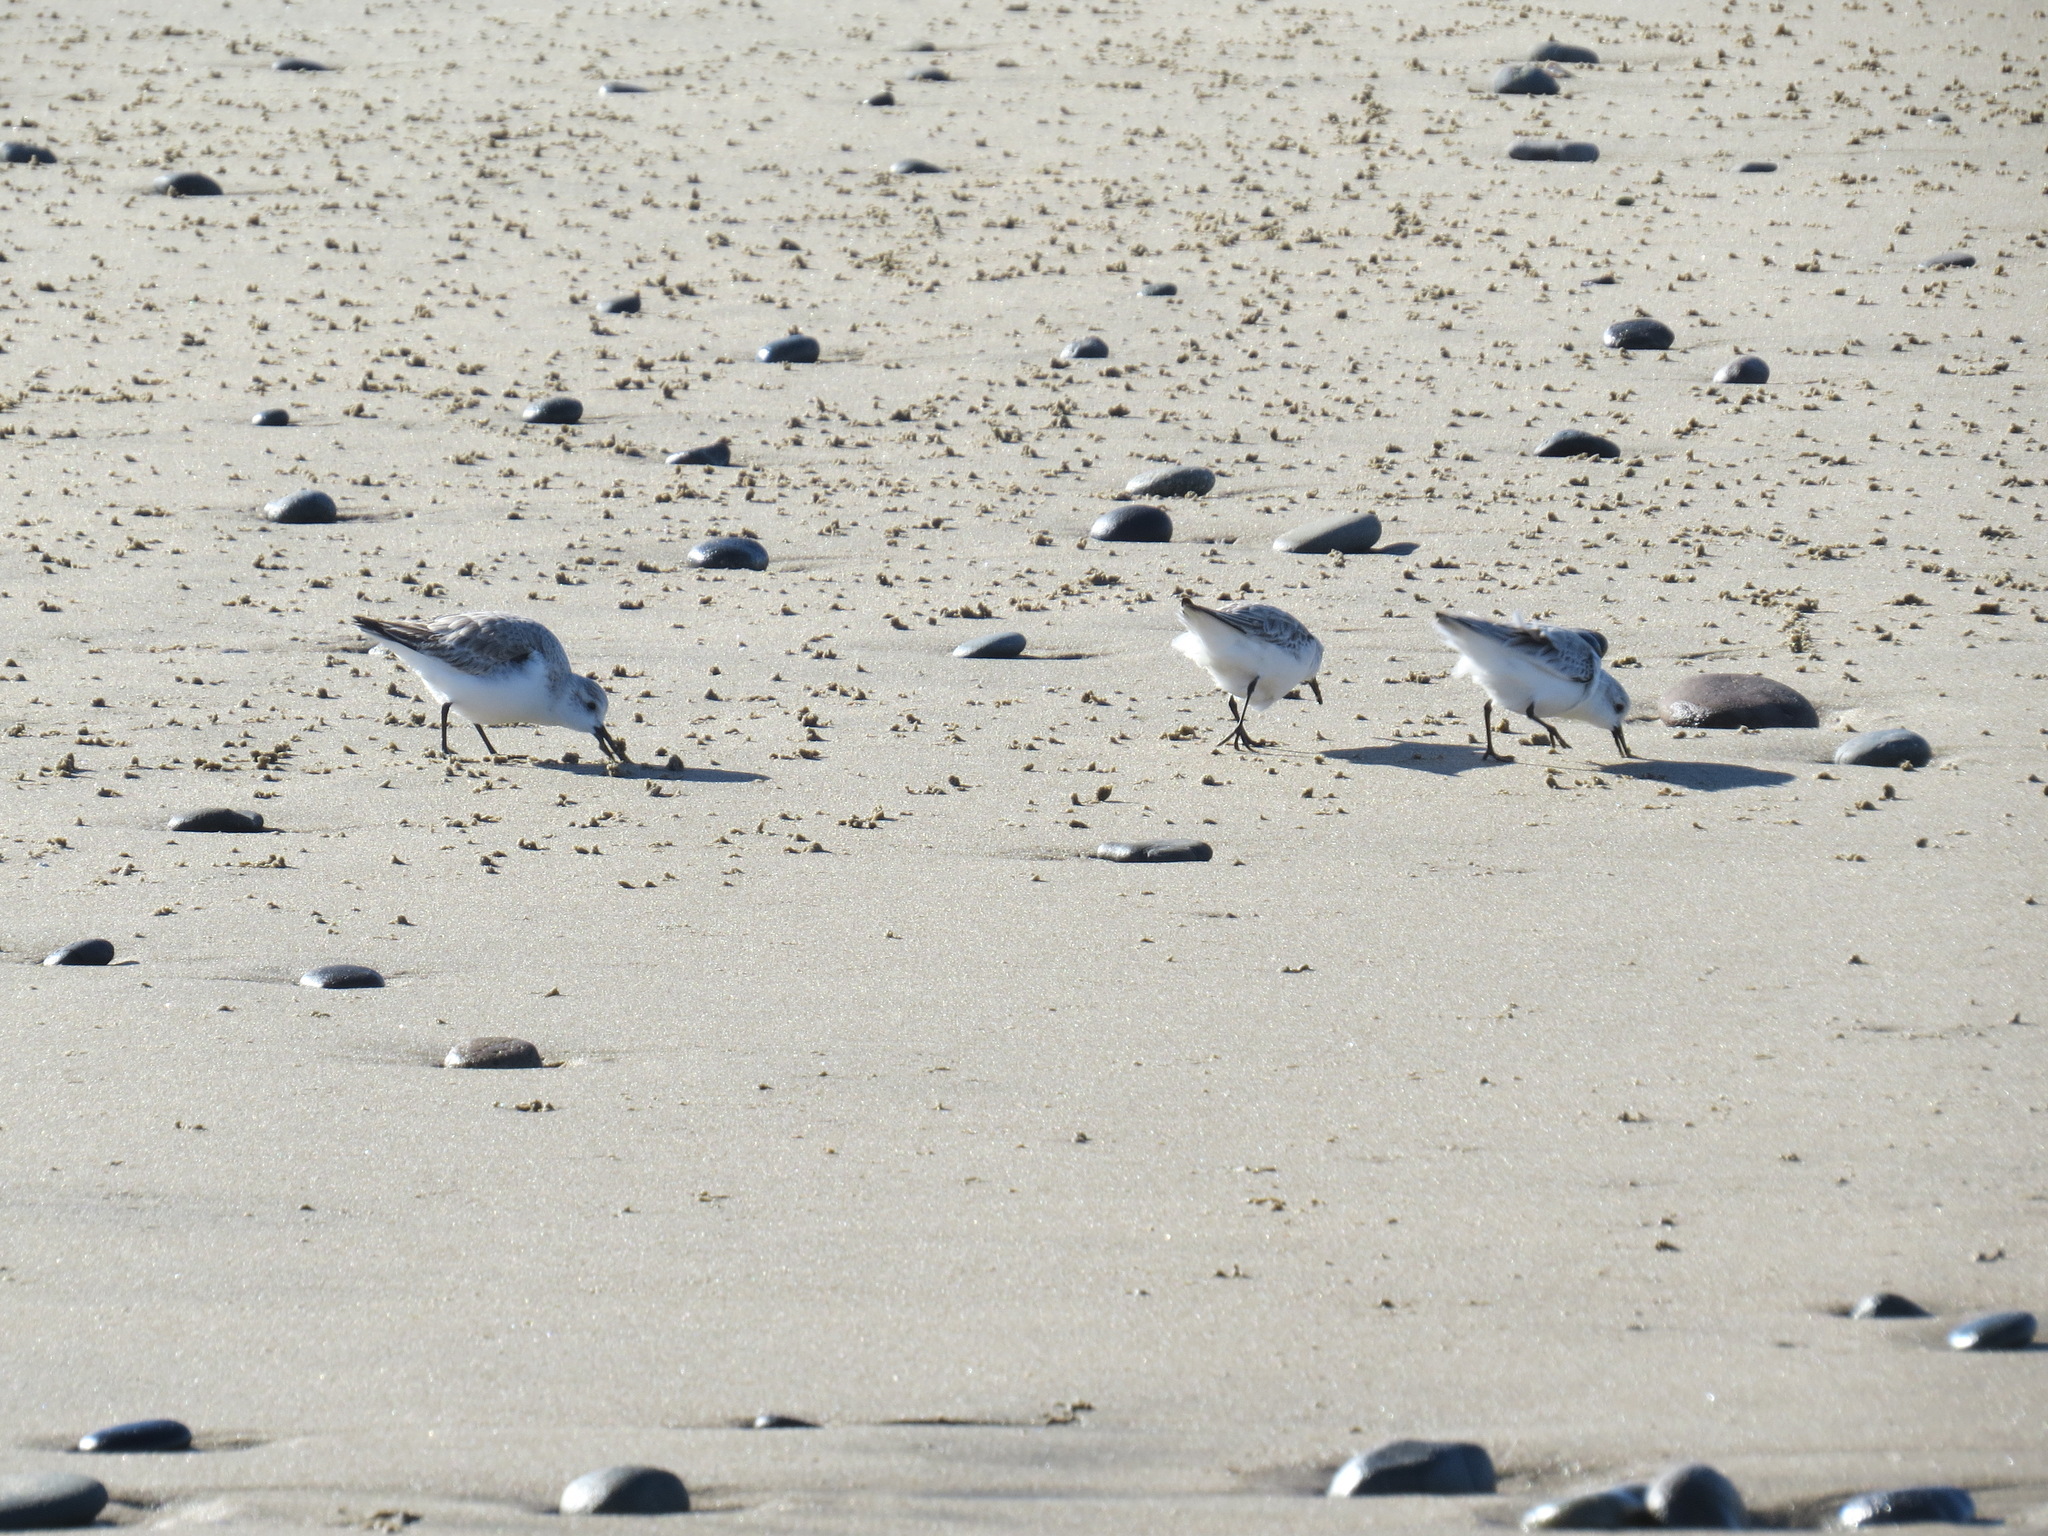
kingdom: Animalia
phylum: Chordata
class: Aves
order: Charadriiformes
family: Scolopacidae
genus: Calidris
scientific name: Calidris alba
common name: Sanderling
